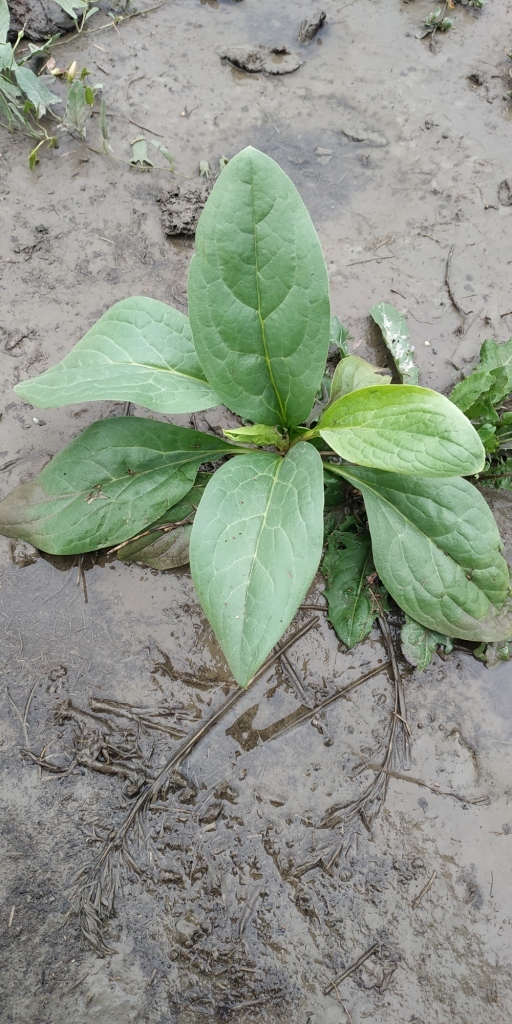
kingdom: Plantae
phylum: Tracheophyta
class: Magnoliopsida
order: Boraginales
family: Boraginaceae
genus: Cynoglossum
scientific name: Cynoglossum officinale
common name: Hound's-tongue
